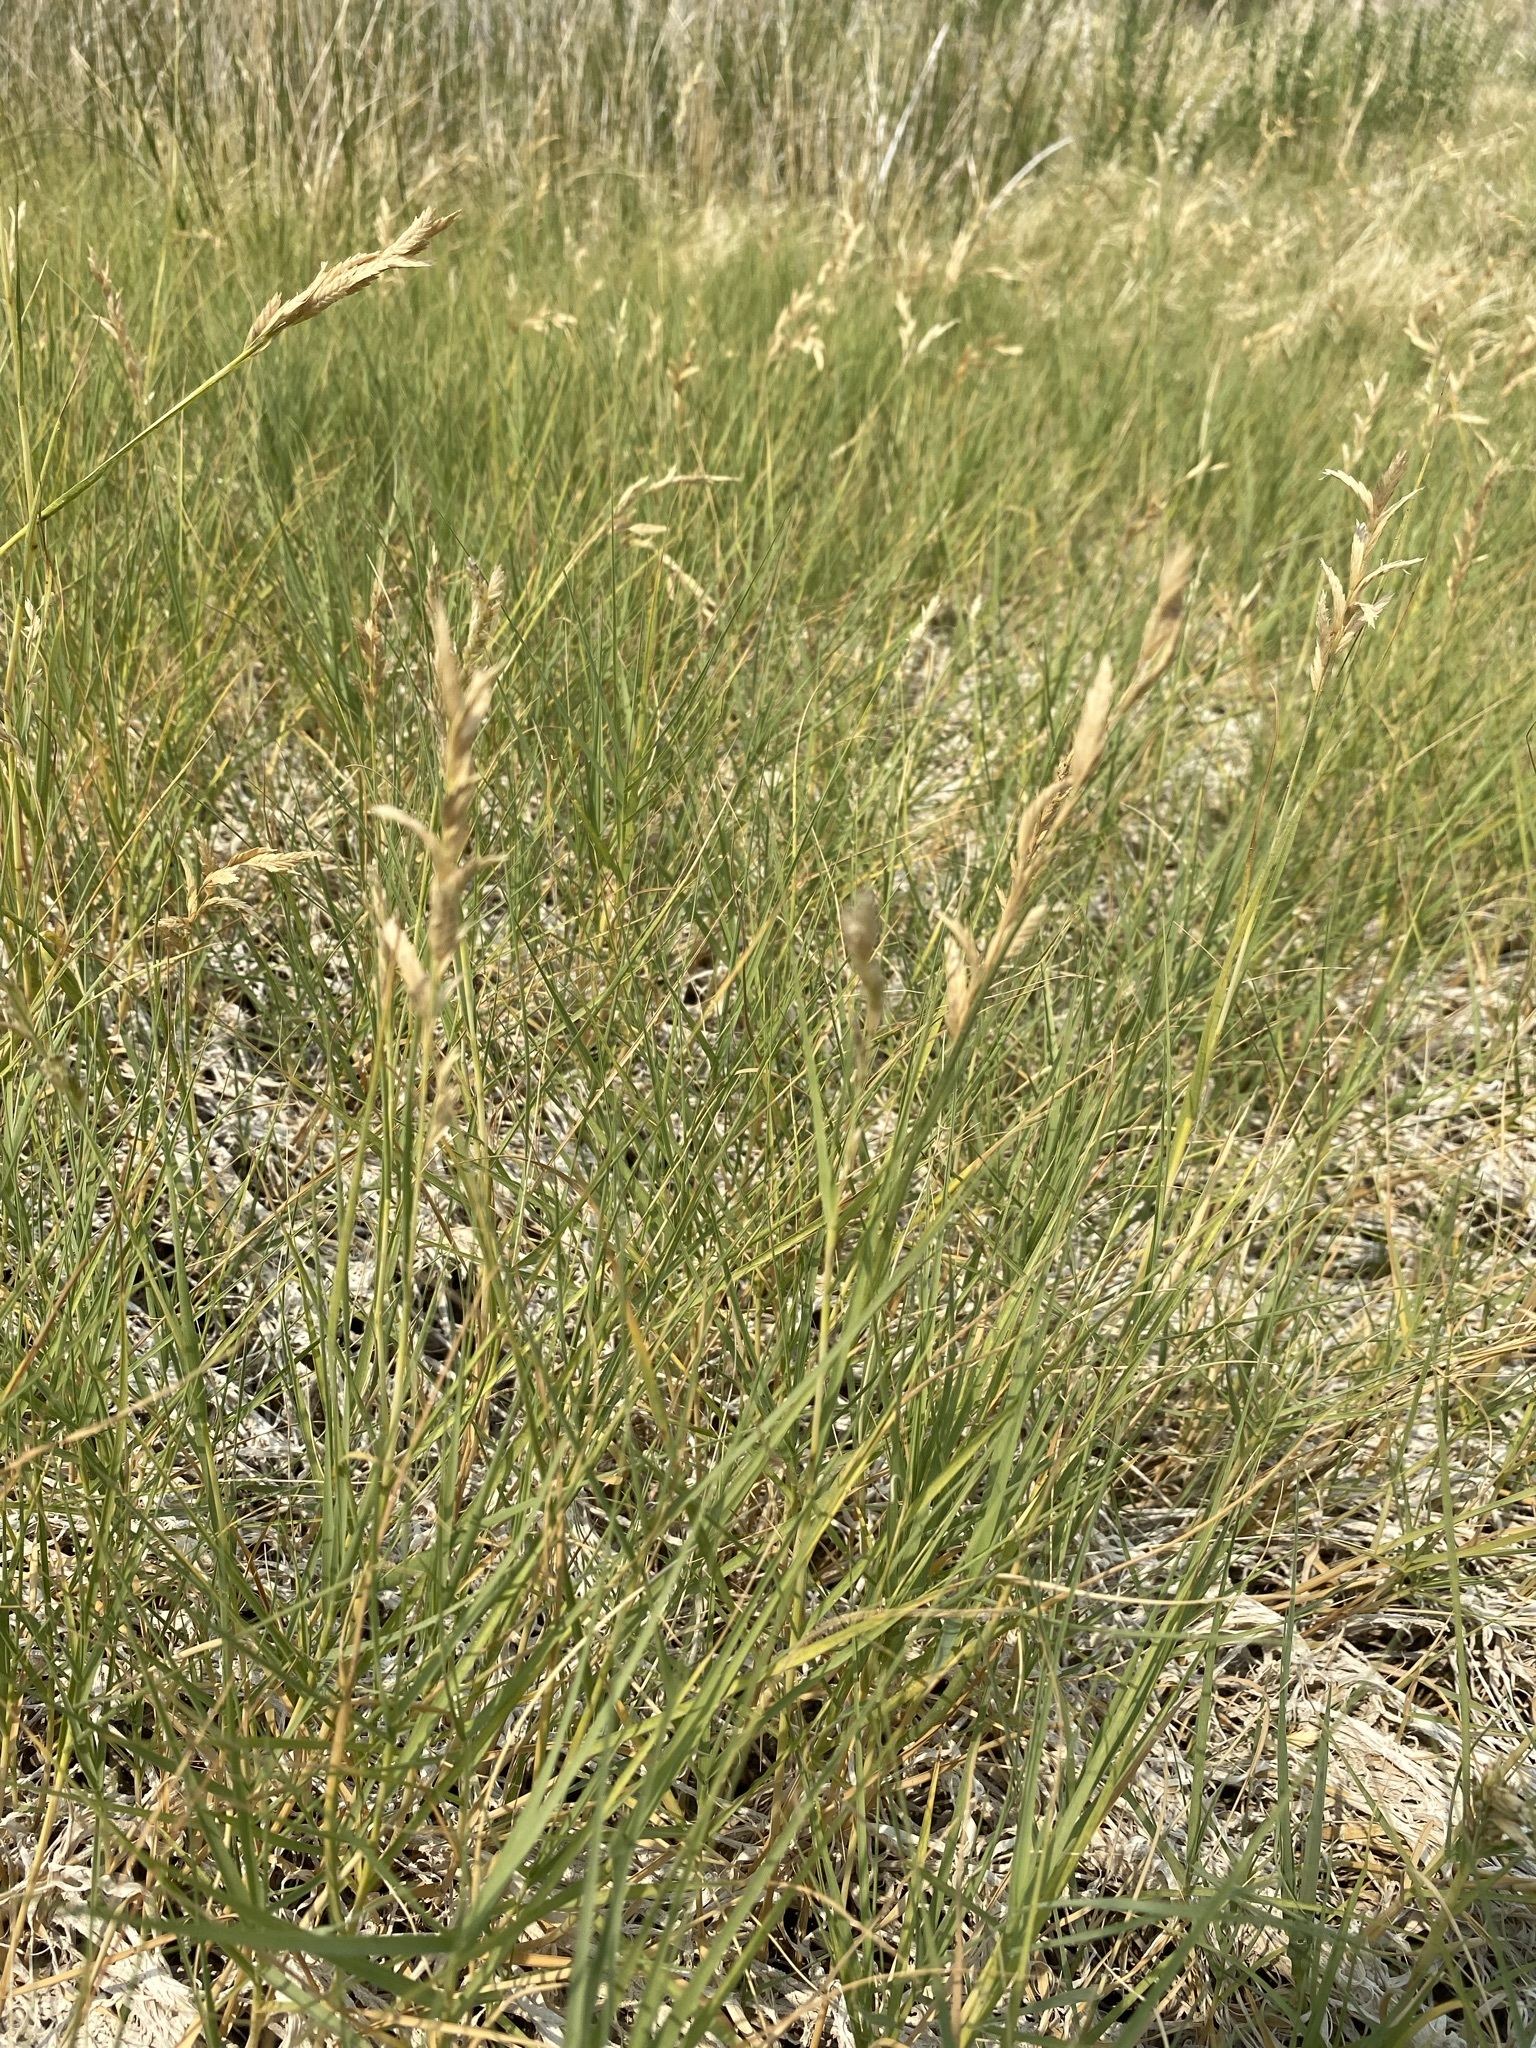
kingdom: Plantae
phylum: Tracheophyta
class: Liliopsida
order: Poales
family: Poaceae
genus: Distichlis
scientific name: Distichlis spicata
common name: Saltgrass
